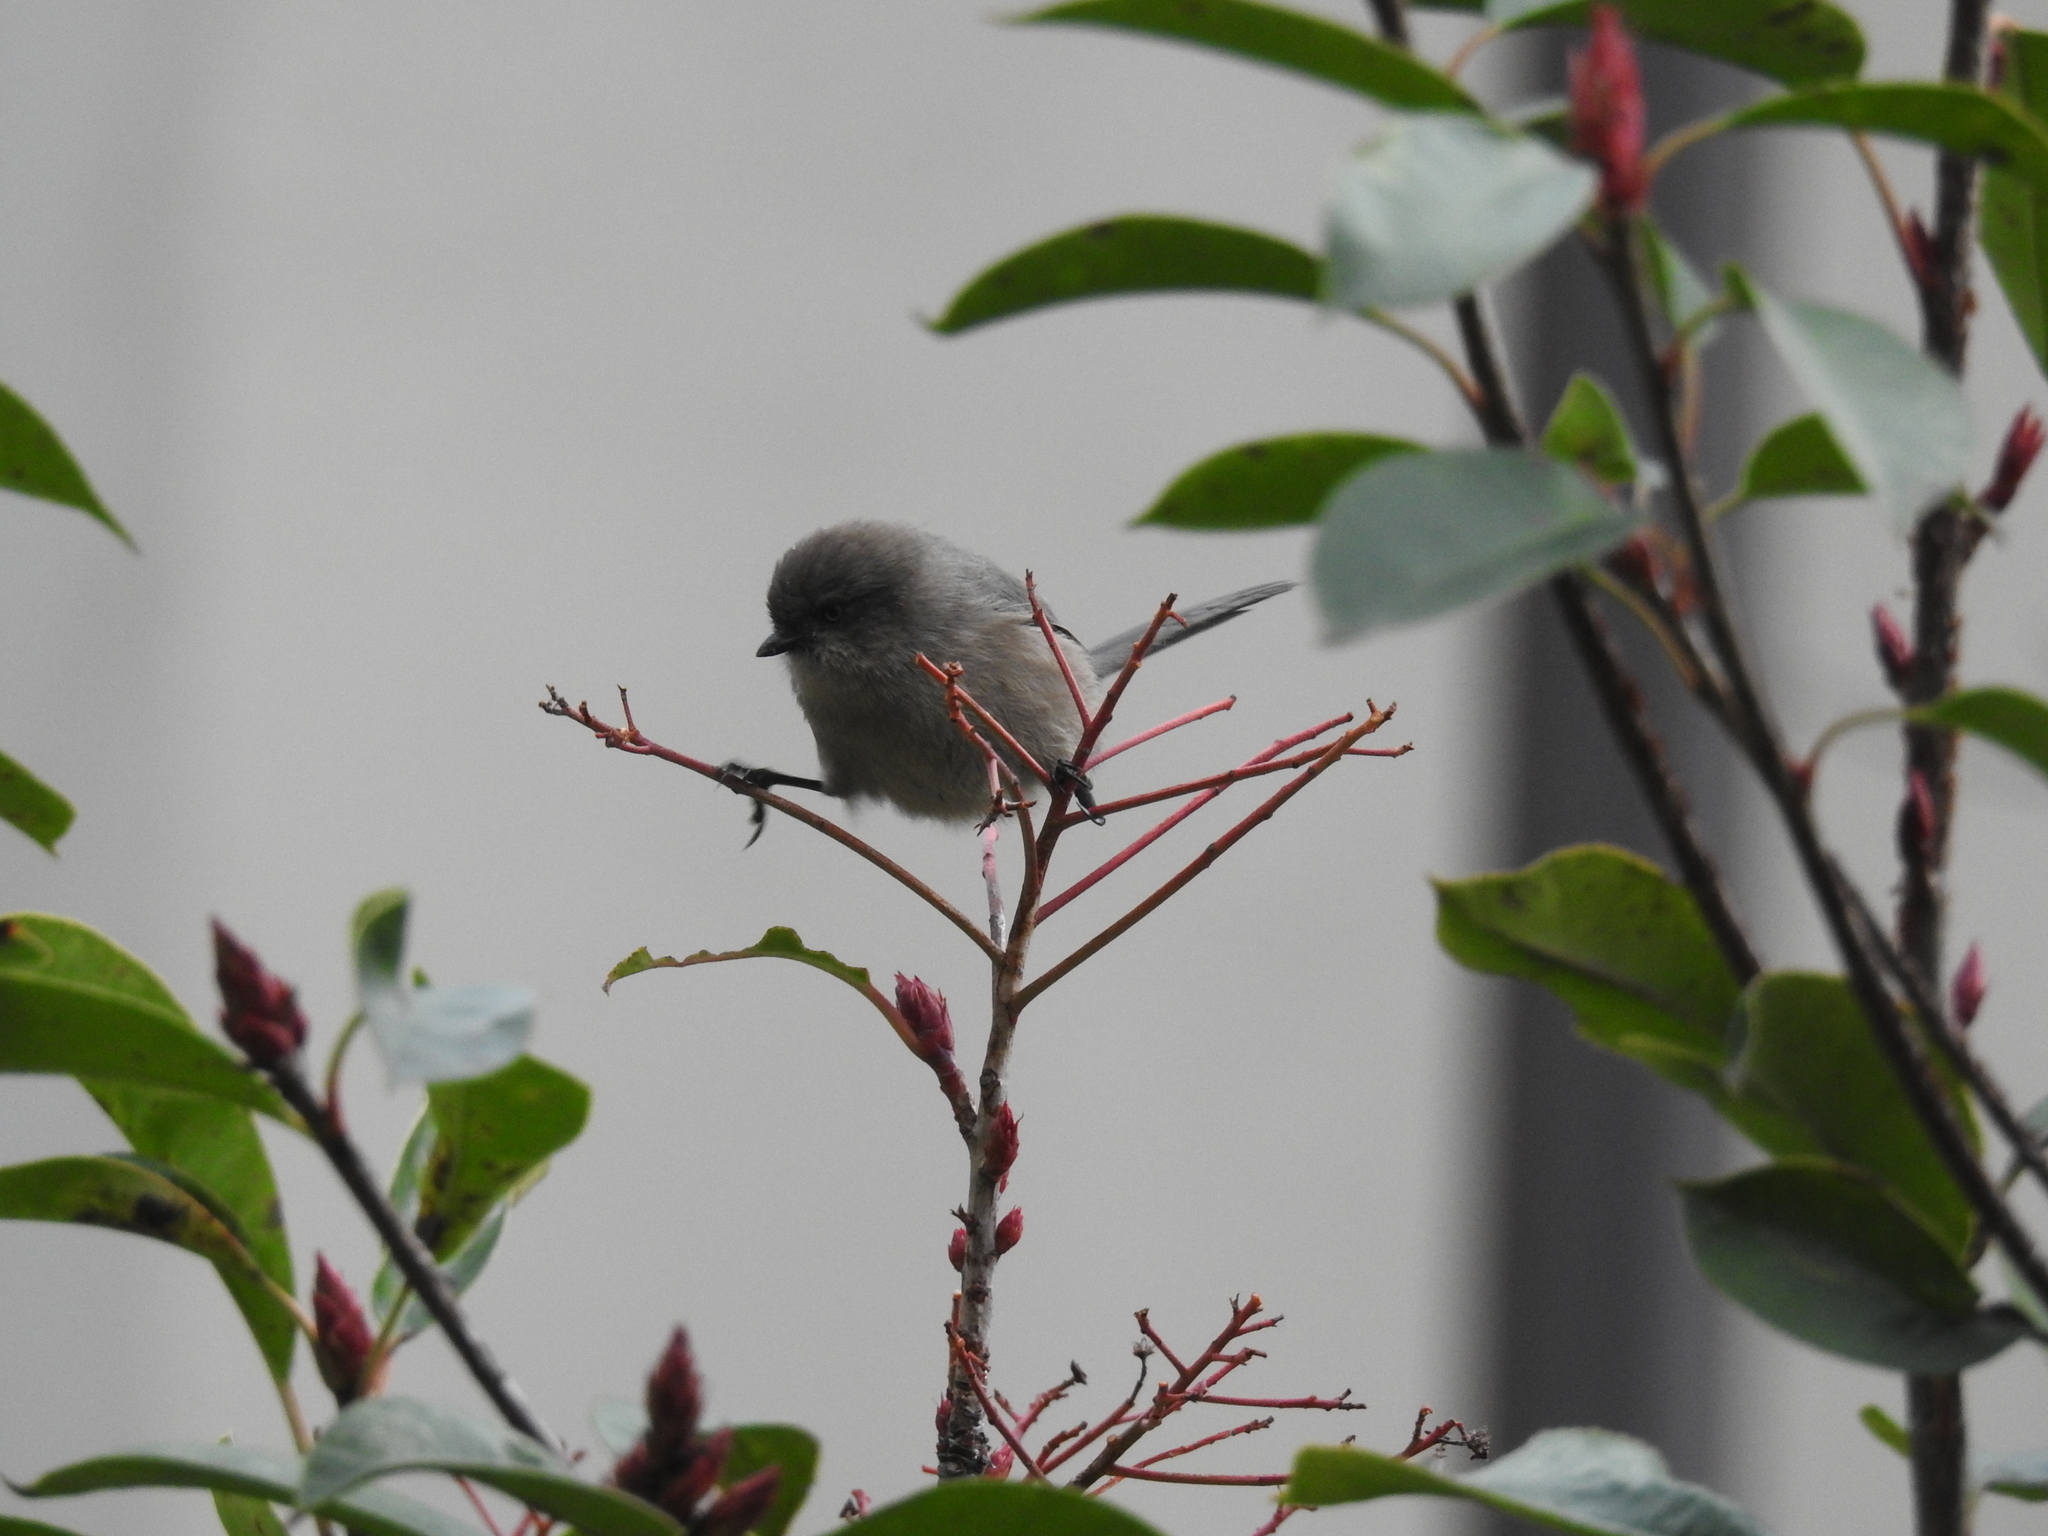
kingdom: Animalia
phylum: Chordata
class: Aves
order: Passeriformes
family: Aegithalidae
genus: Psaltriparus
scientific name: Psaltriparus minimus
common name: American bushtit
